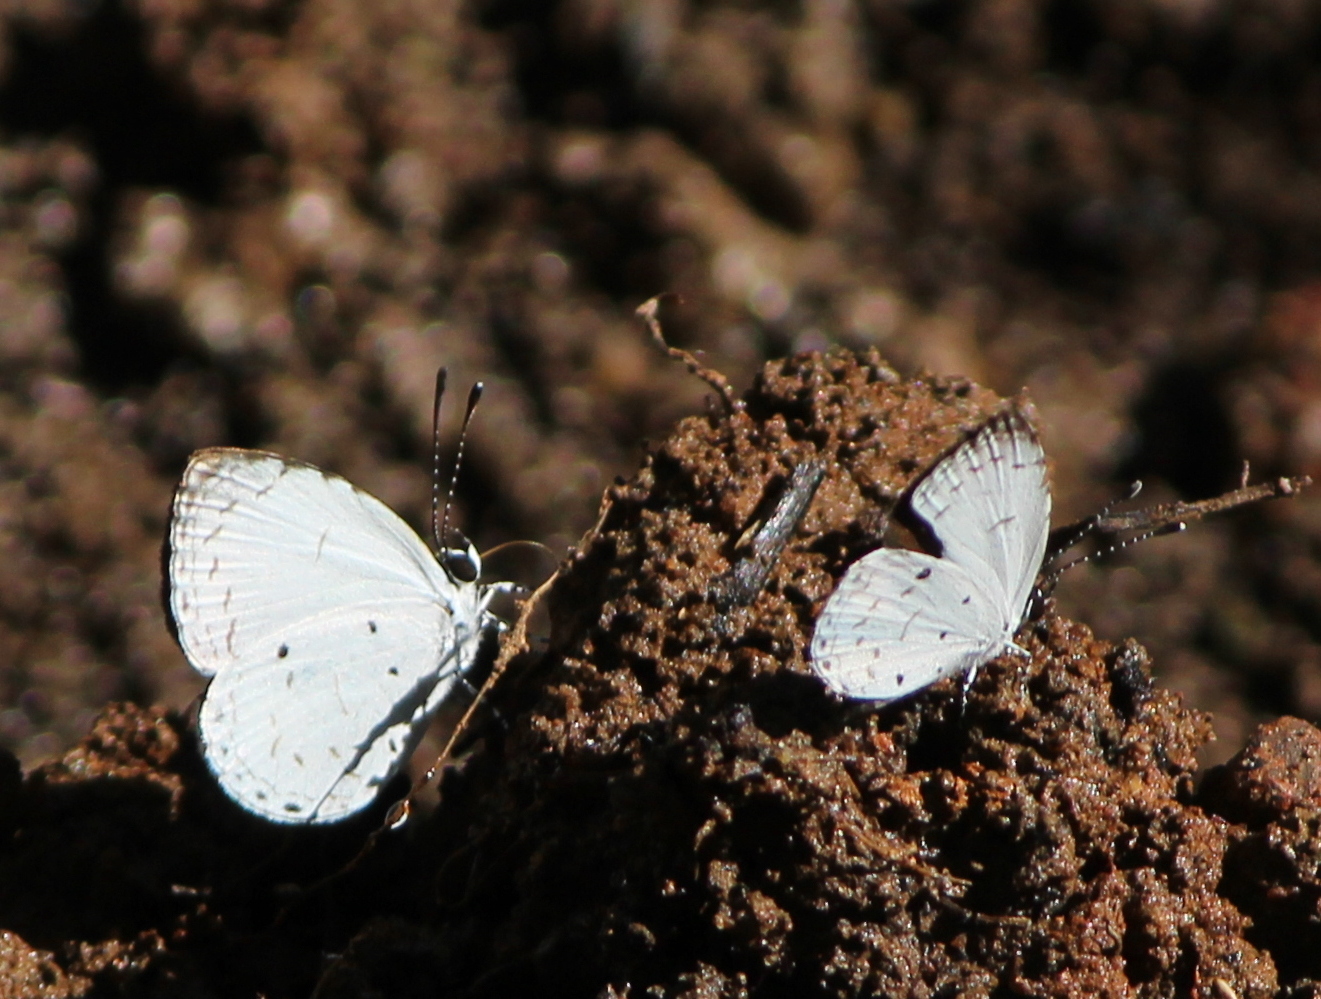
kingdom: Animalia
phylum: Arthropoda
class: Insecta
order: Lepidoptera
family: Lycaenidae
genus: Neopithecops
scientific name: Neopithecops zalmora
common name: Quaker
